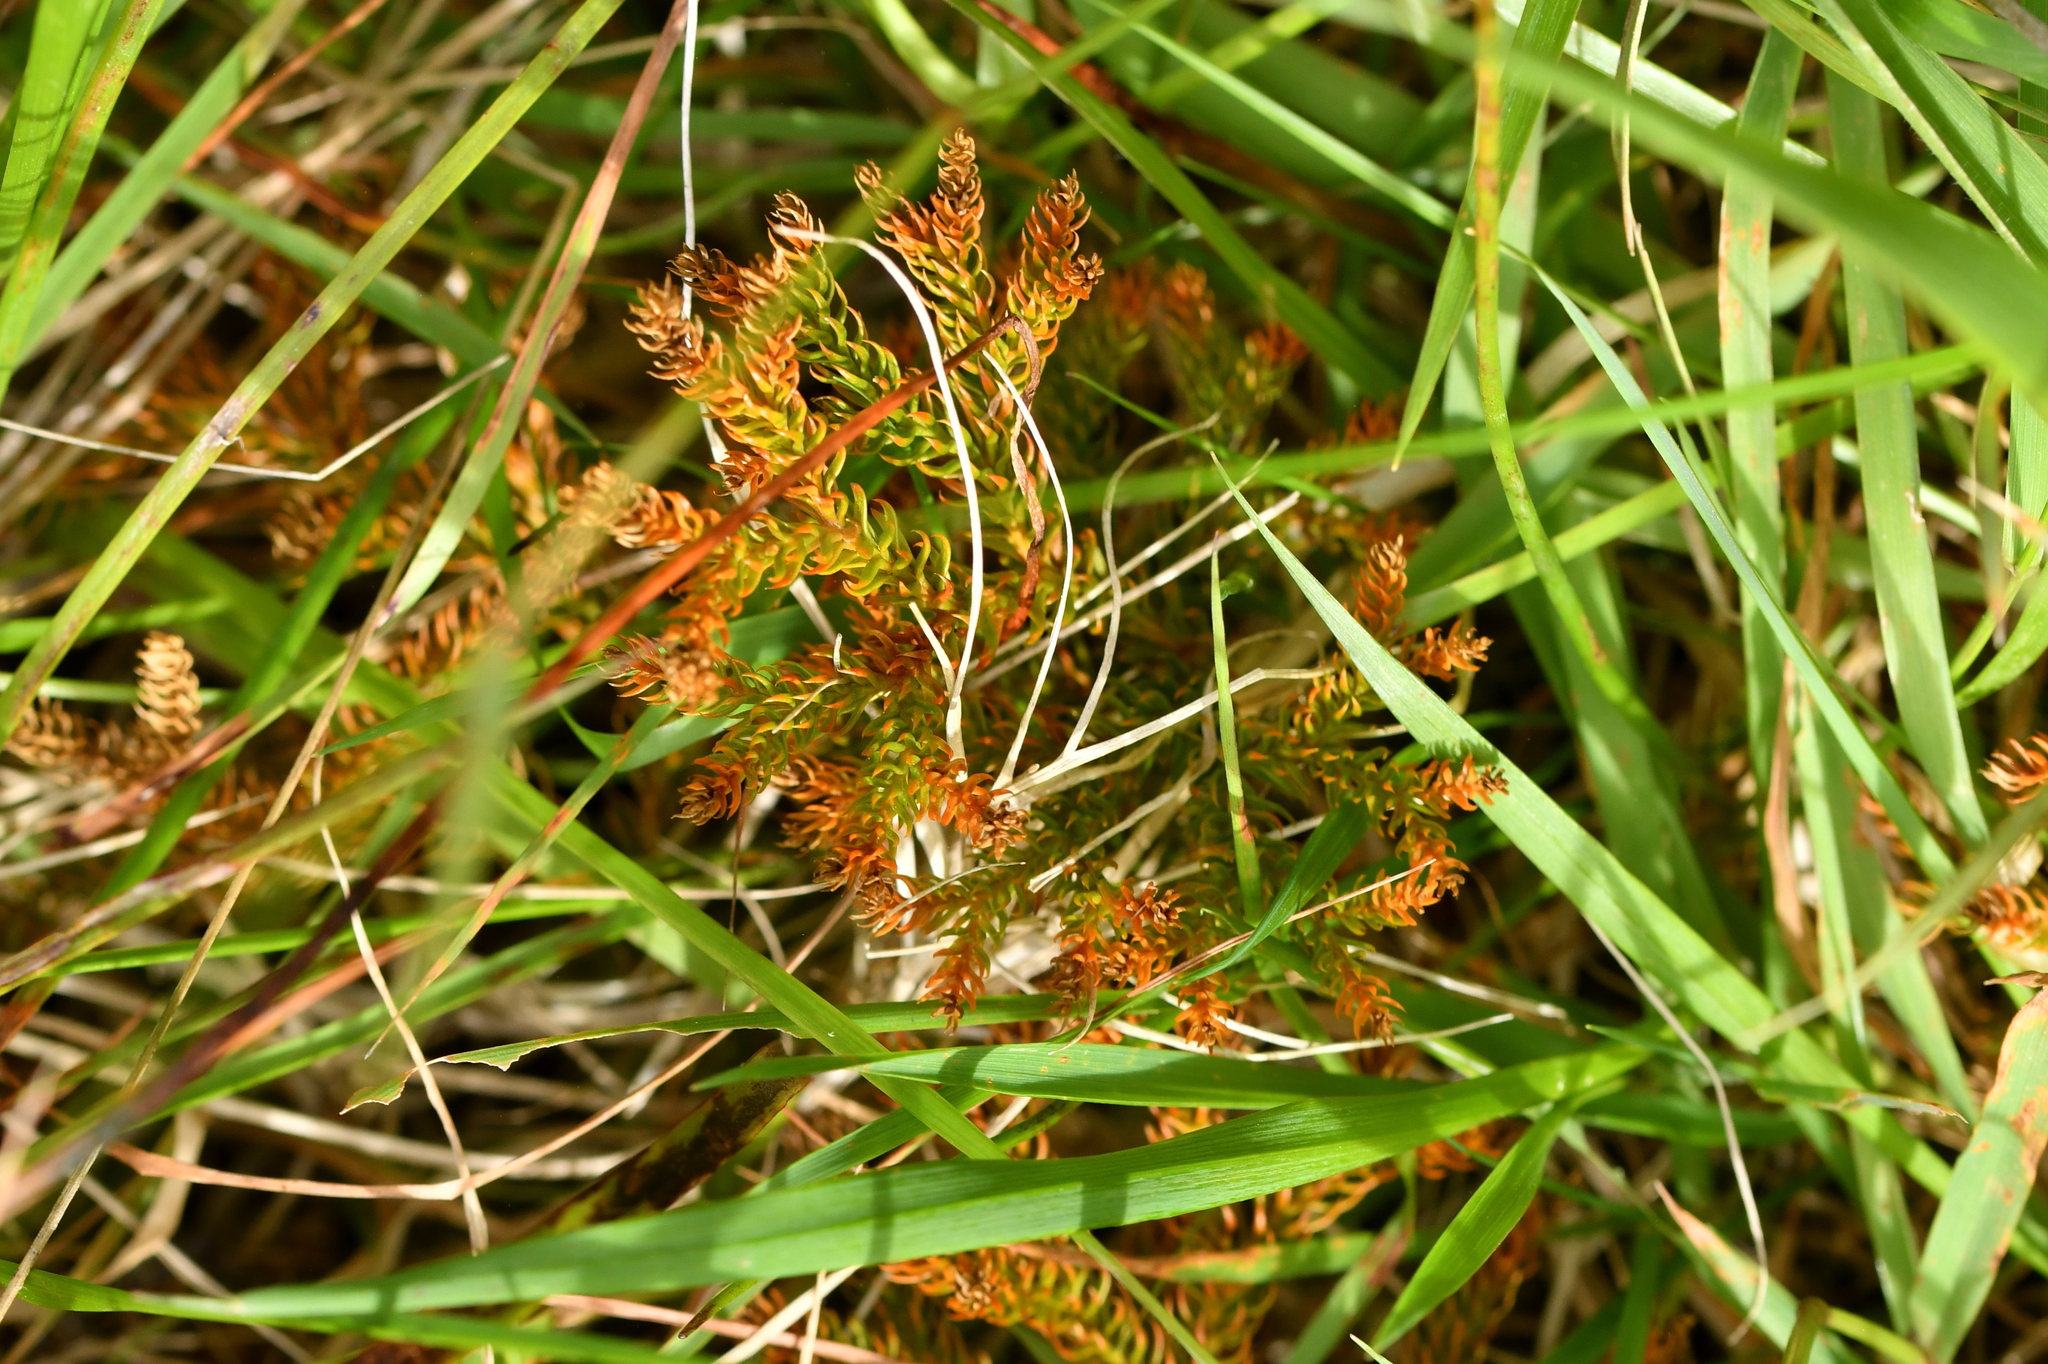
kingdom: Plantae
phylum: Tracheophyta
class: Lycopodiopsida
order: Lycopodiales
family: Lycopodiaceae
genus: Austrolycopodium
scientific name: Austrolycopodium fastigiatum
